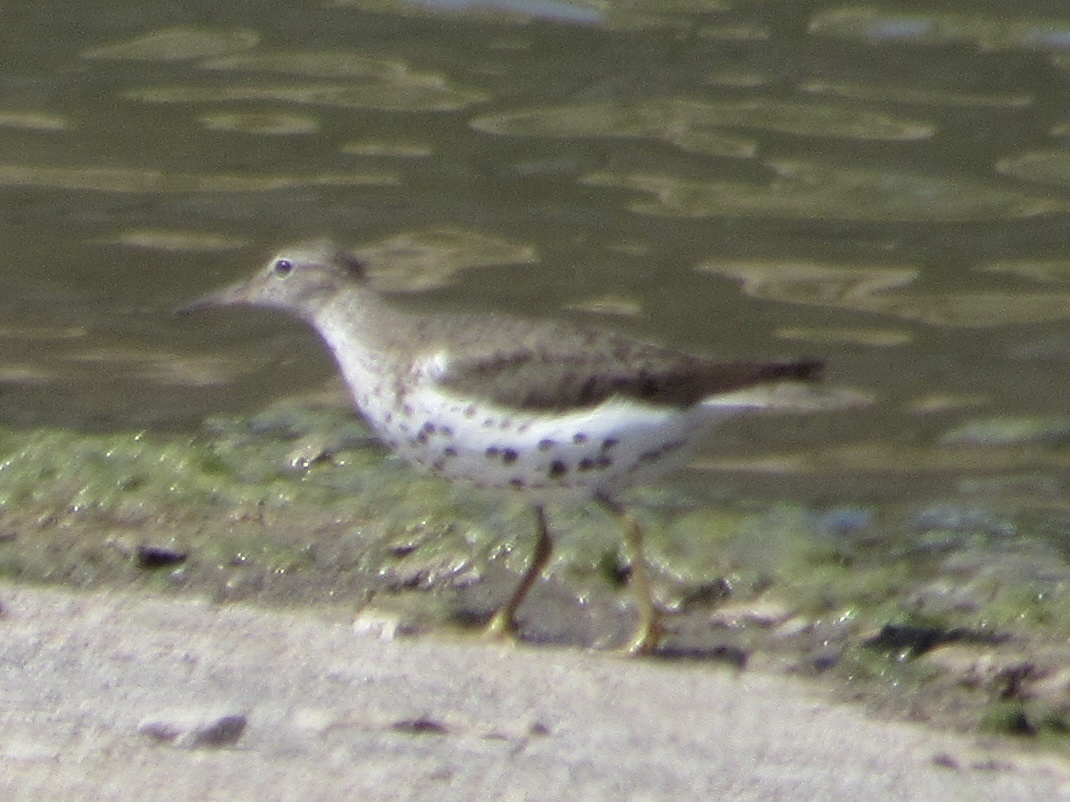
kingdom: Animalia
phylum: Chordata
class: Aves
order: Charadriiformes
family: Scolopacidae
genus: Actitis
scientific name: Actitis macularius
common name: Spotted sandpiper
